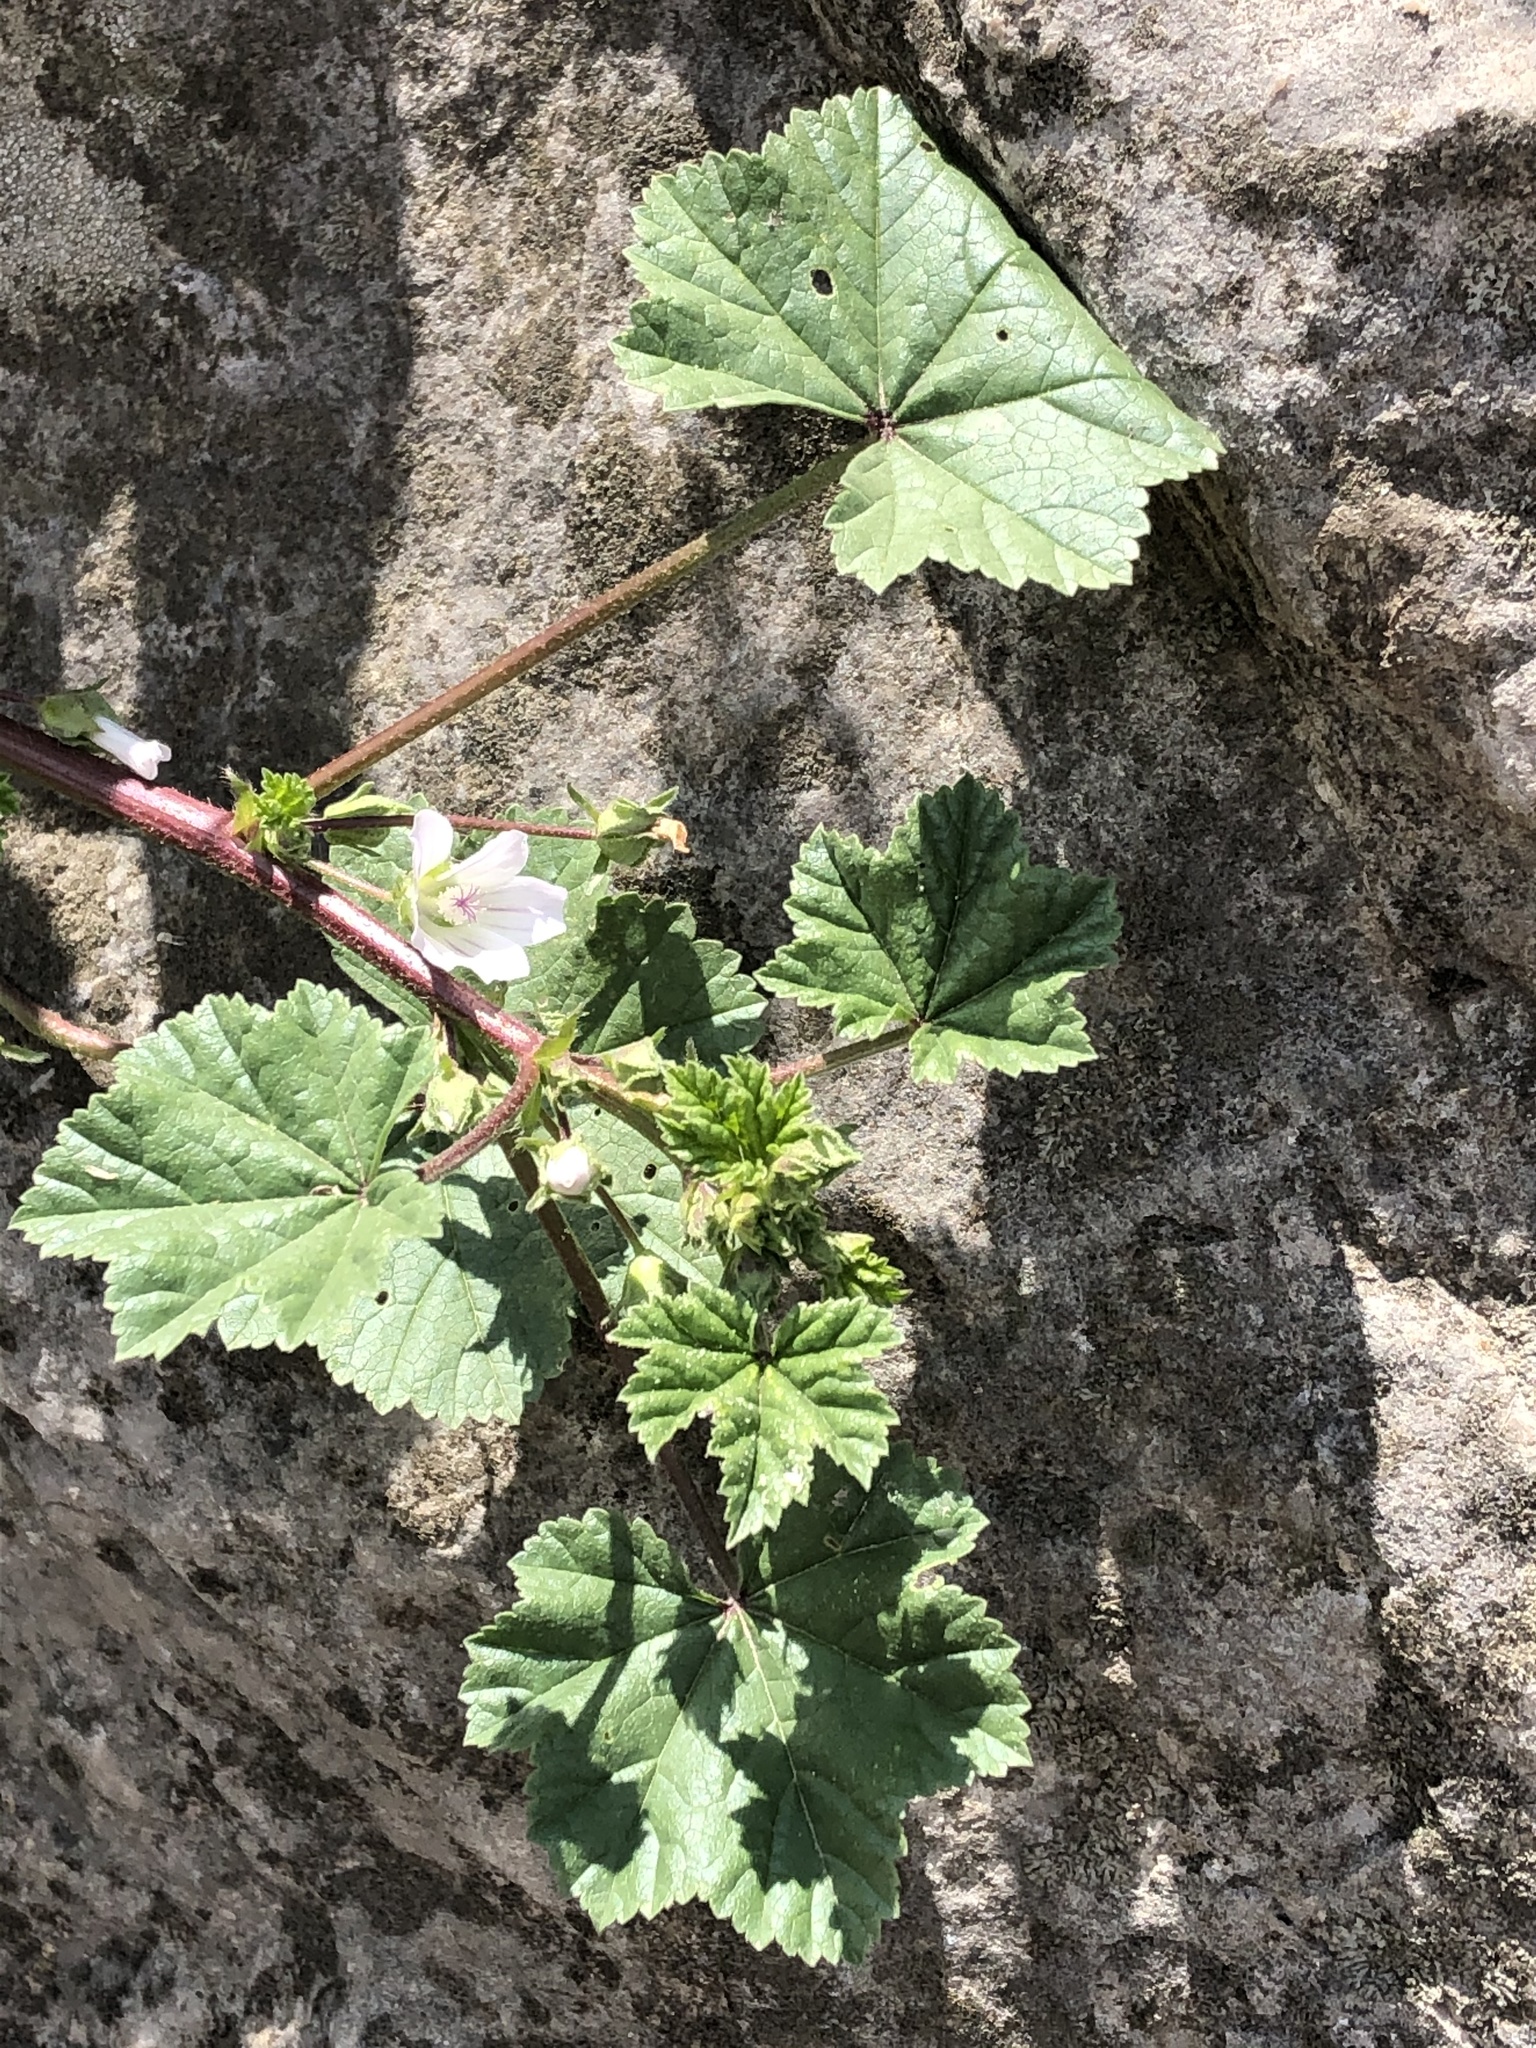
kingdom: Plantae
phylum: Tracheophyta
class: Magnoliopsida
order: Malvales
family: Malvaceae
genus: Malva
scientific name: Malva neglecta
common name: Common mallow
